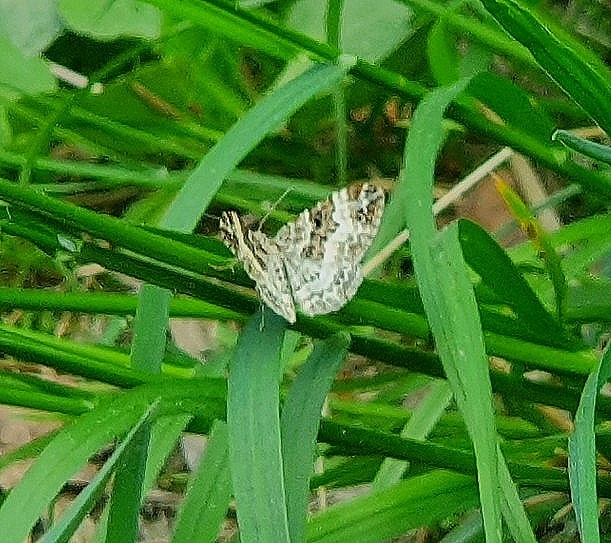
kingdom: Animalia
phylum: Arthropoda
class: Insecta
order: Lepidoptera
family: Geometridae
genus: Epirrhoe
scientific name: Epirrhoe alternata
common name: Common carpet
